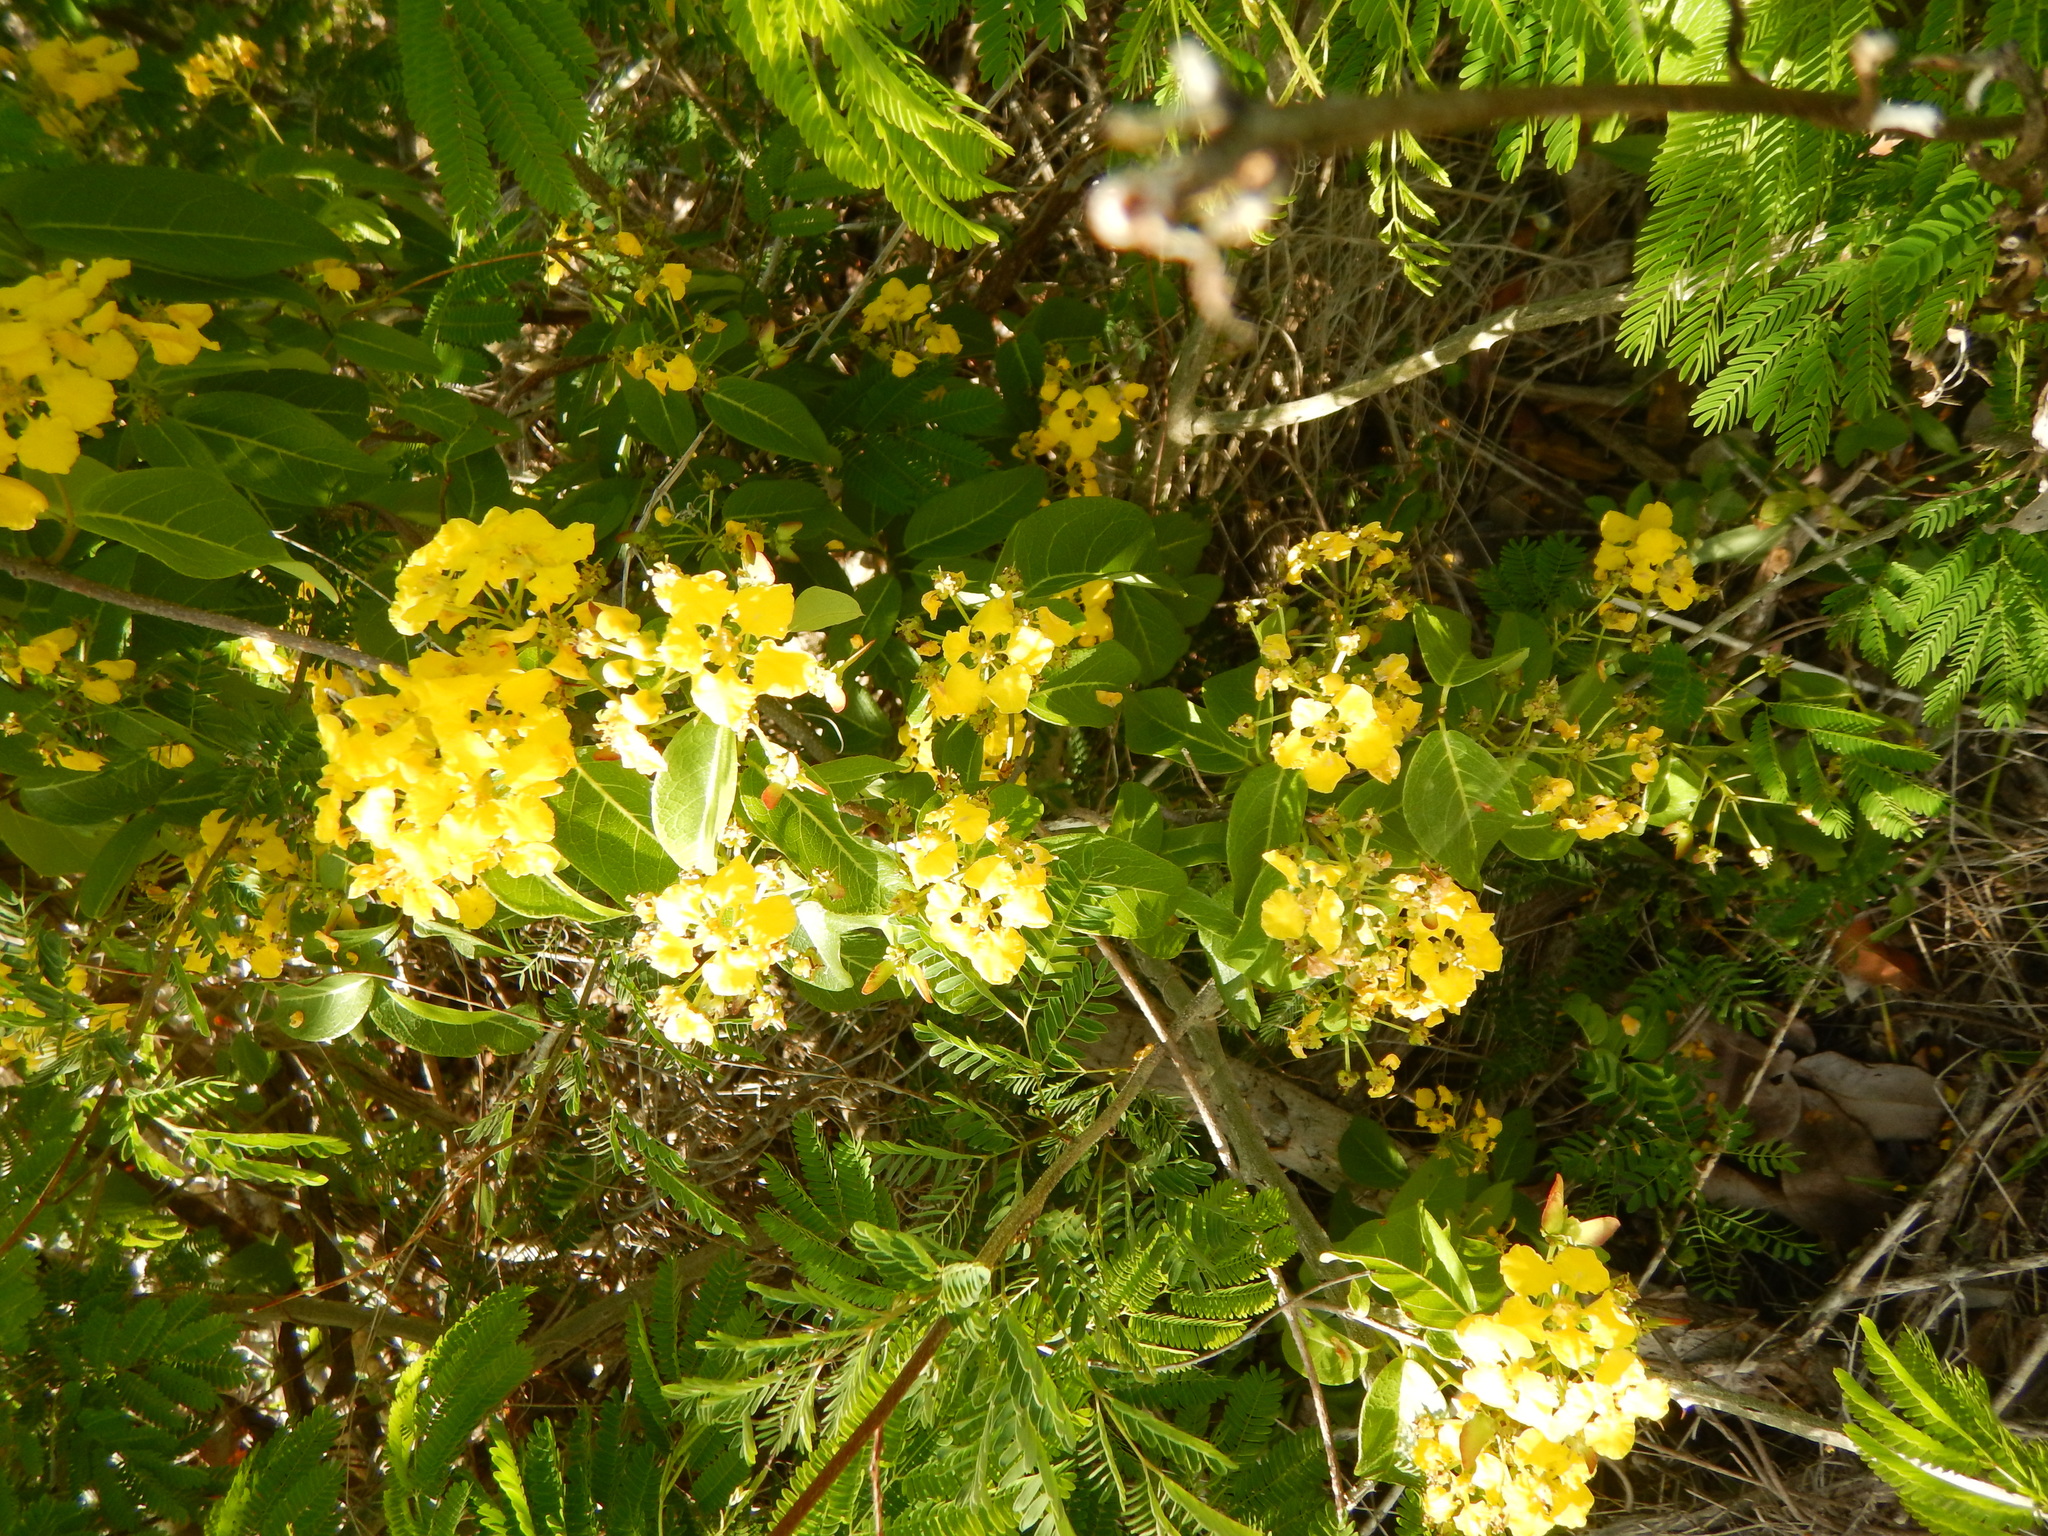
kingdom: Plantae
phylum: Tracheophyta
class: Magnoliopsida
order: Malpighiales
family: Malpighiaceae
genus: Stigmaphyllon
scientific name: Stigmaphyllon emarginatum
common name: Monarch amazonvine
